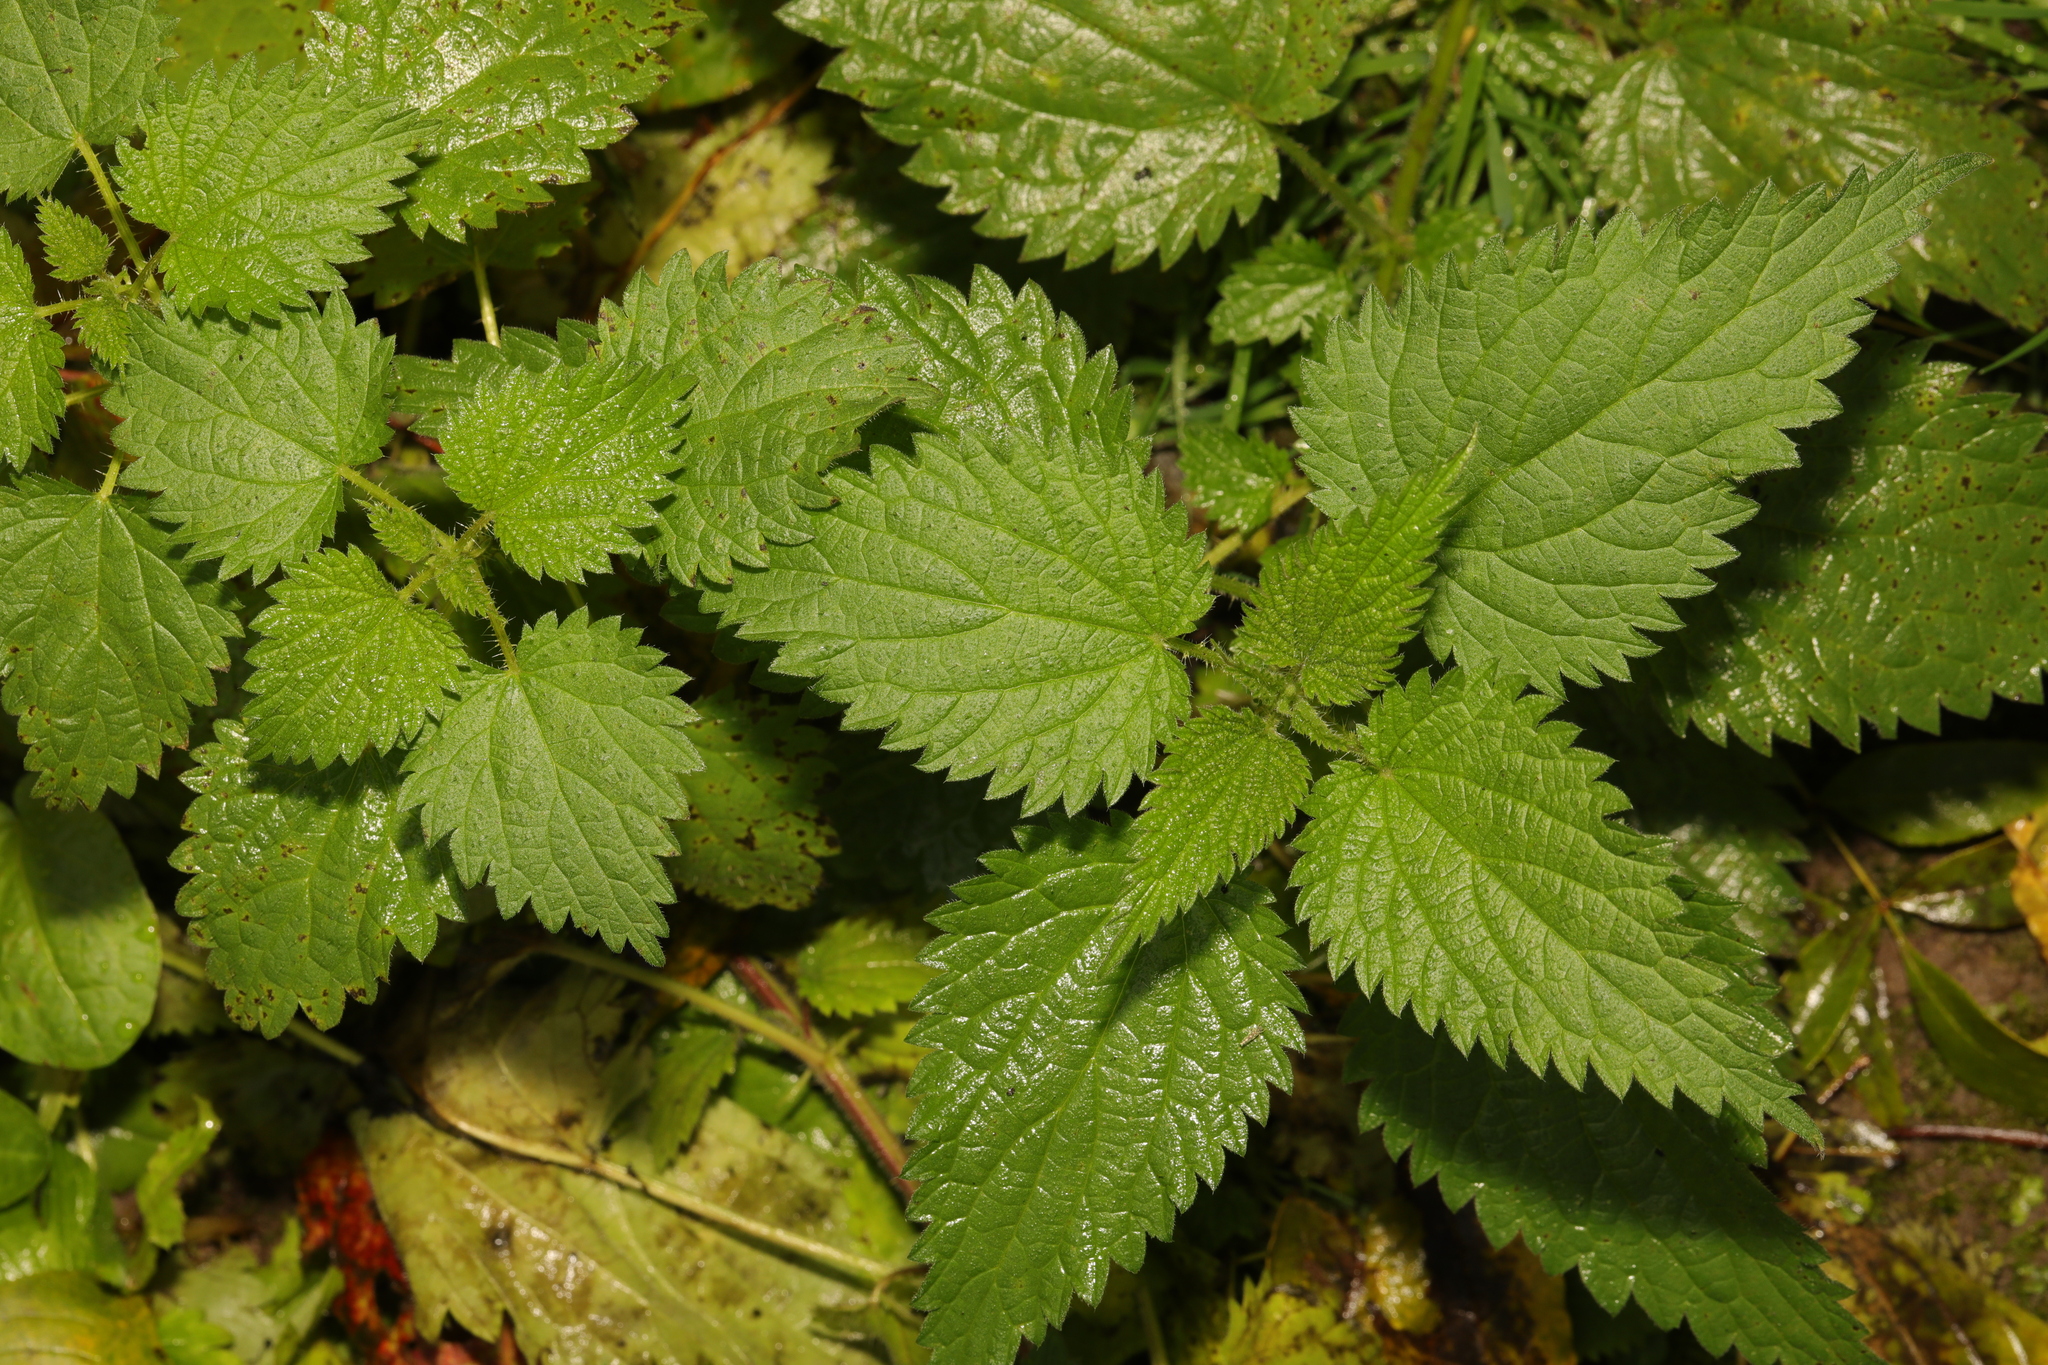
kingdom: Plantae
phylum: Tracheophyta
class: Magnoliopsida
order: Rosales
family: Urticaceae
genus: Urtica
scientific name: Urtica dioica
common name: Common nettle
